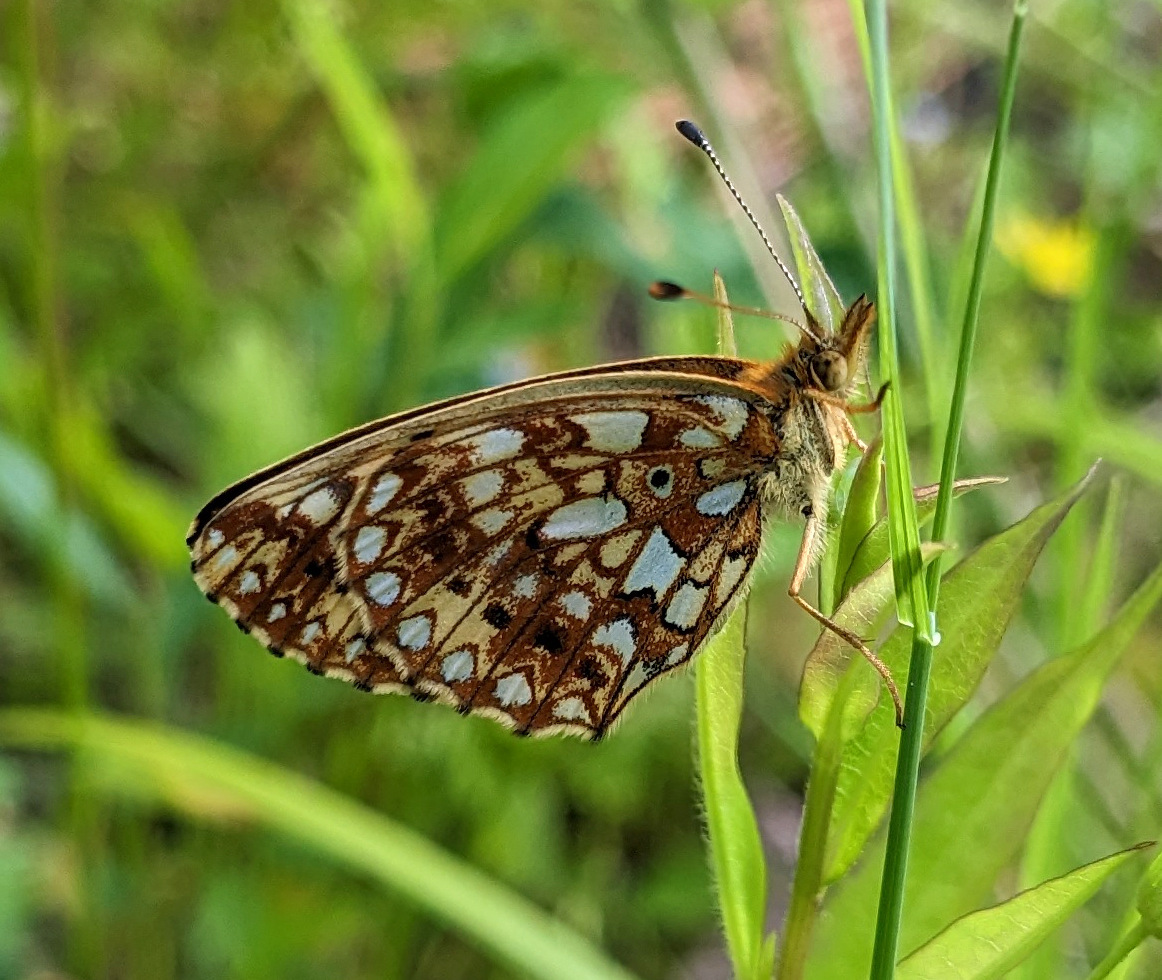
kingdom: Animalia
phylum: Arthropoda
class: Insecta
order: Lepidoptera
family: Nymphalidae
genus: Boloria
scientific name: Boloria
